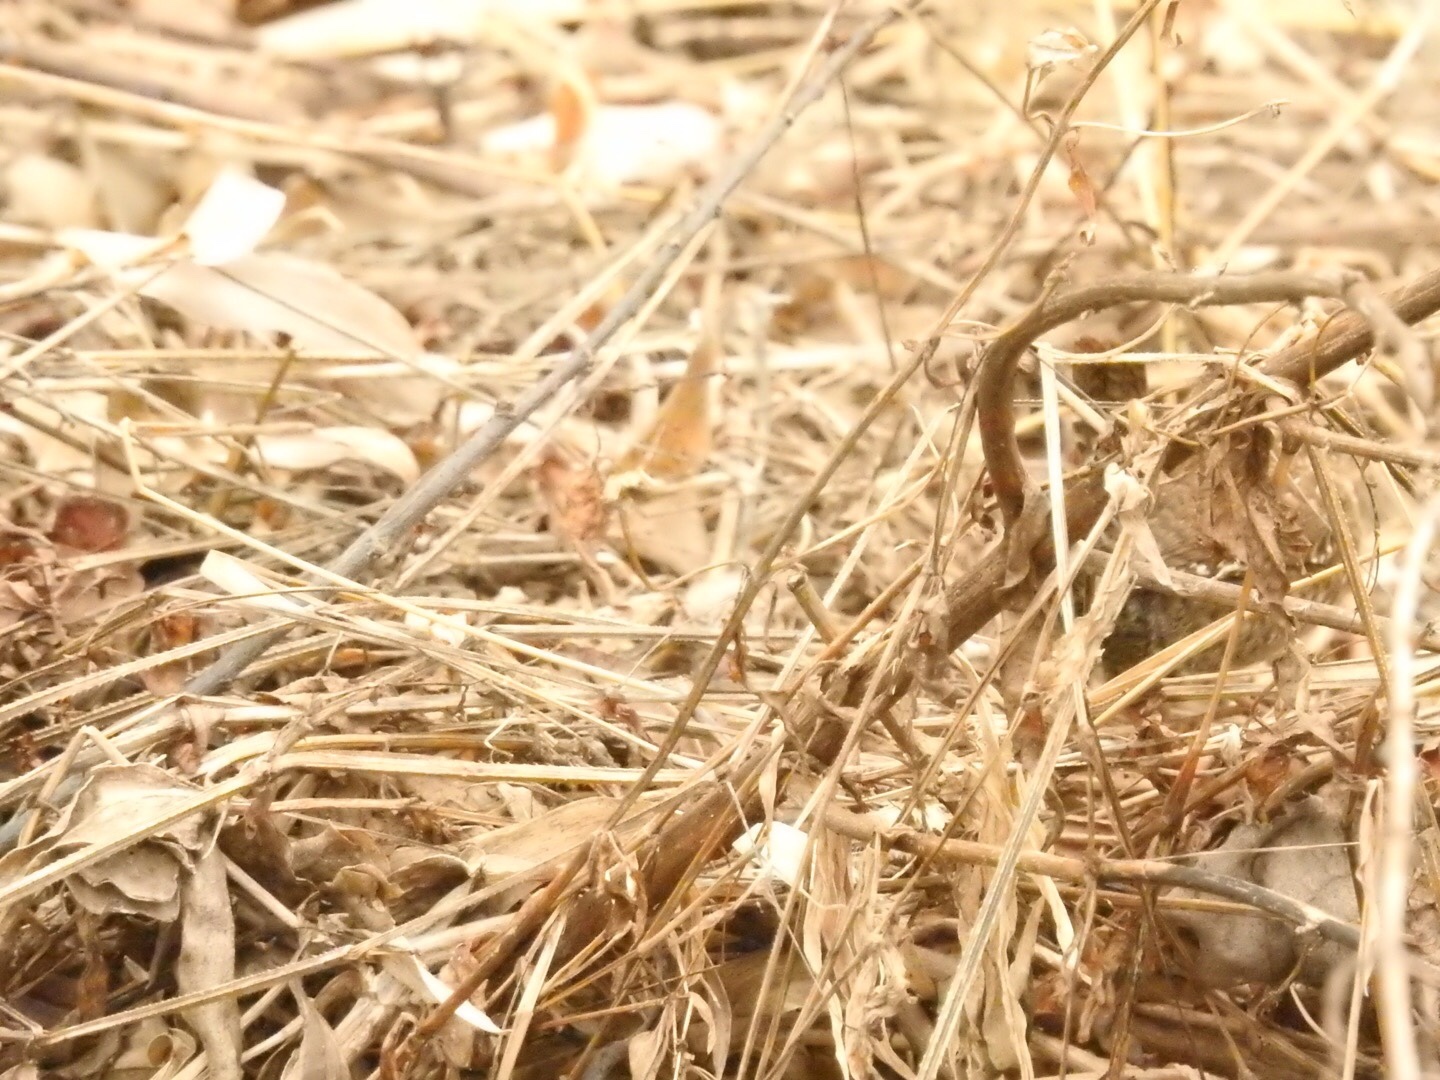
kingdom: Animalia
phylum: Chordata
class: Aves
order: Passeriformes
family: Troglodytidae
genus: Troglodytes
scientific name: Troglodytes hiemalis
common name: Winter wren
